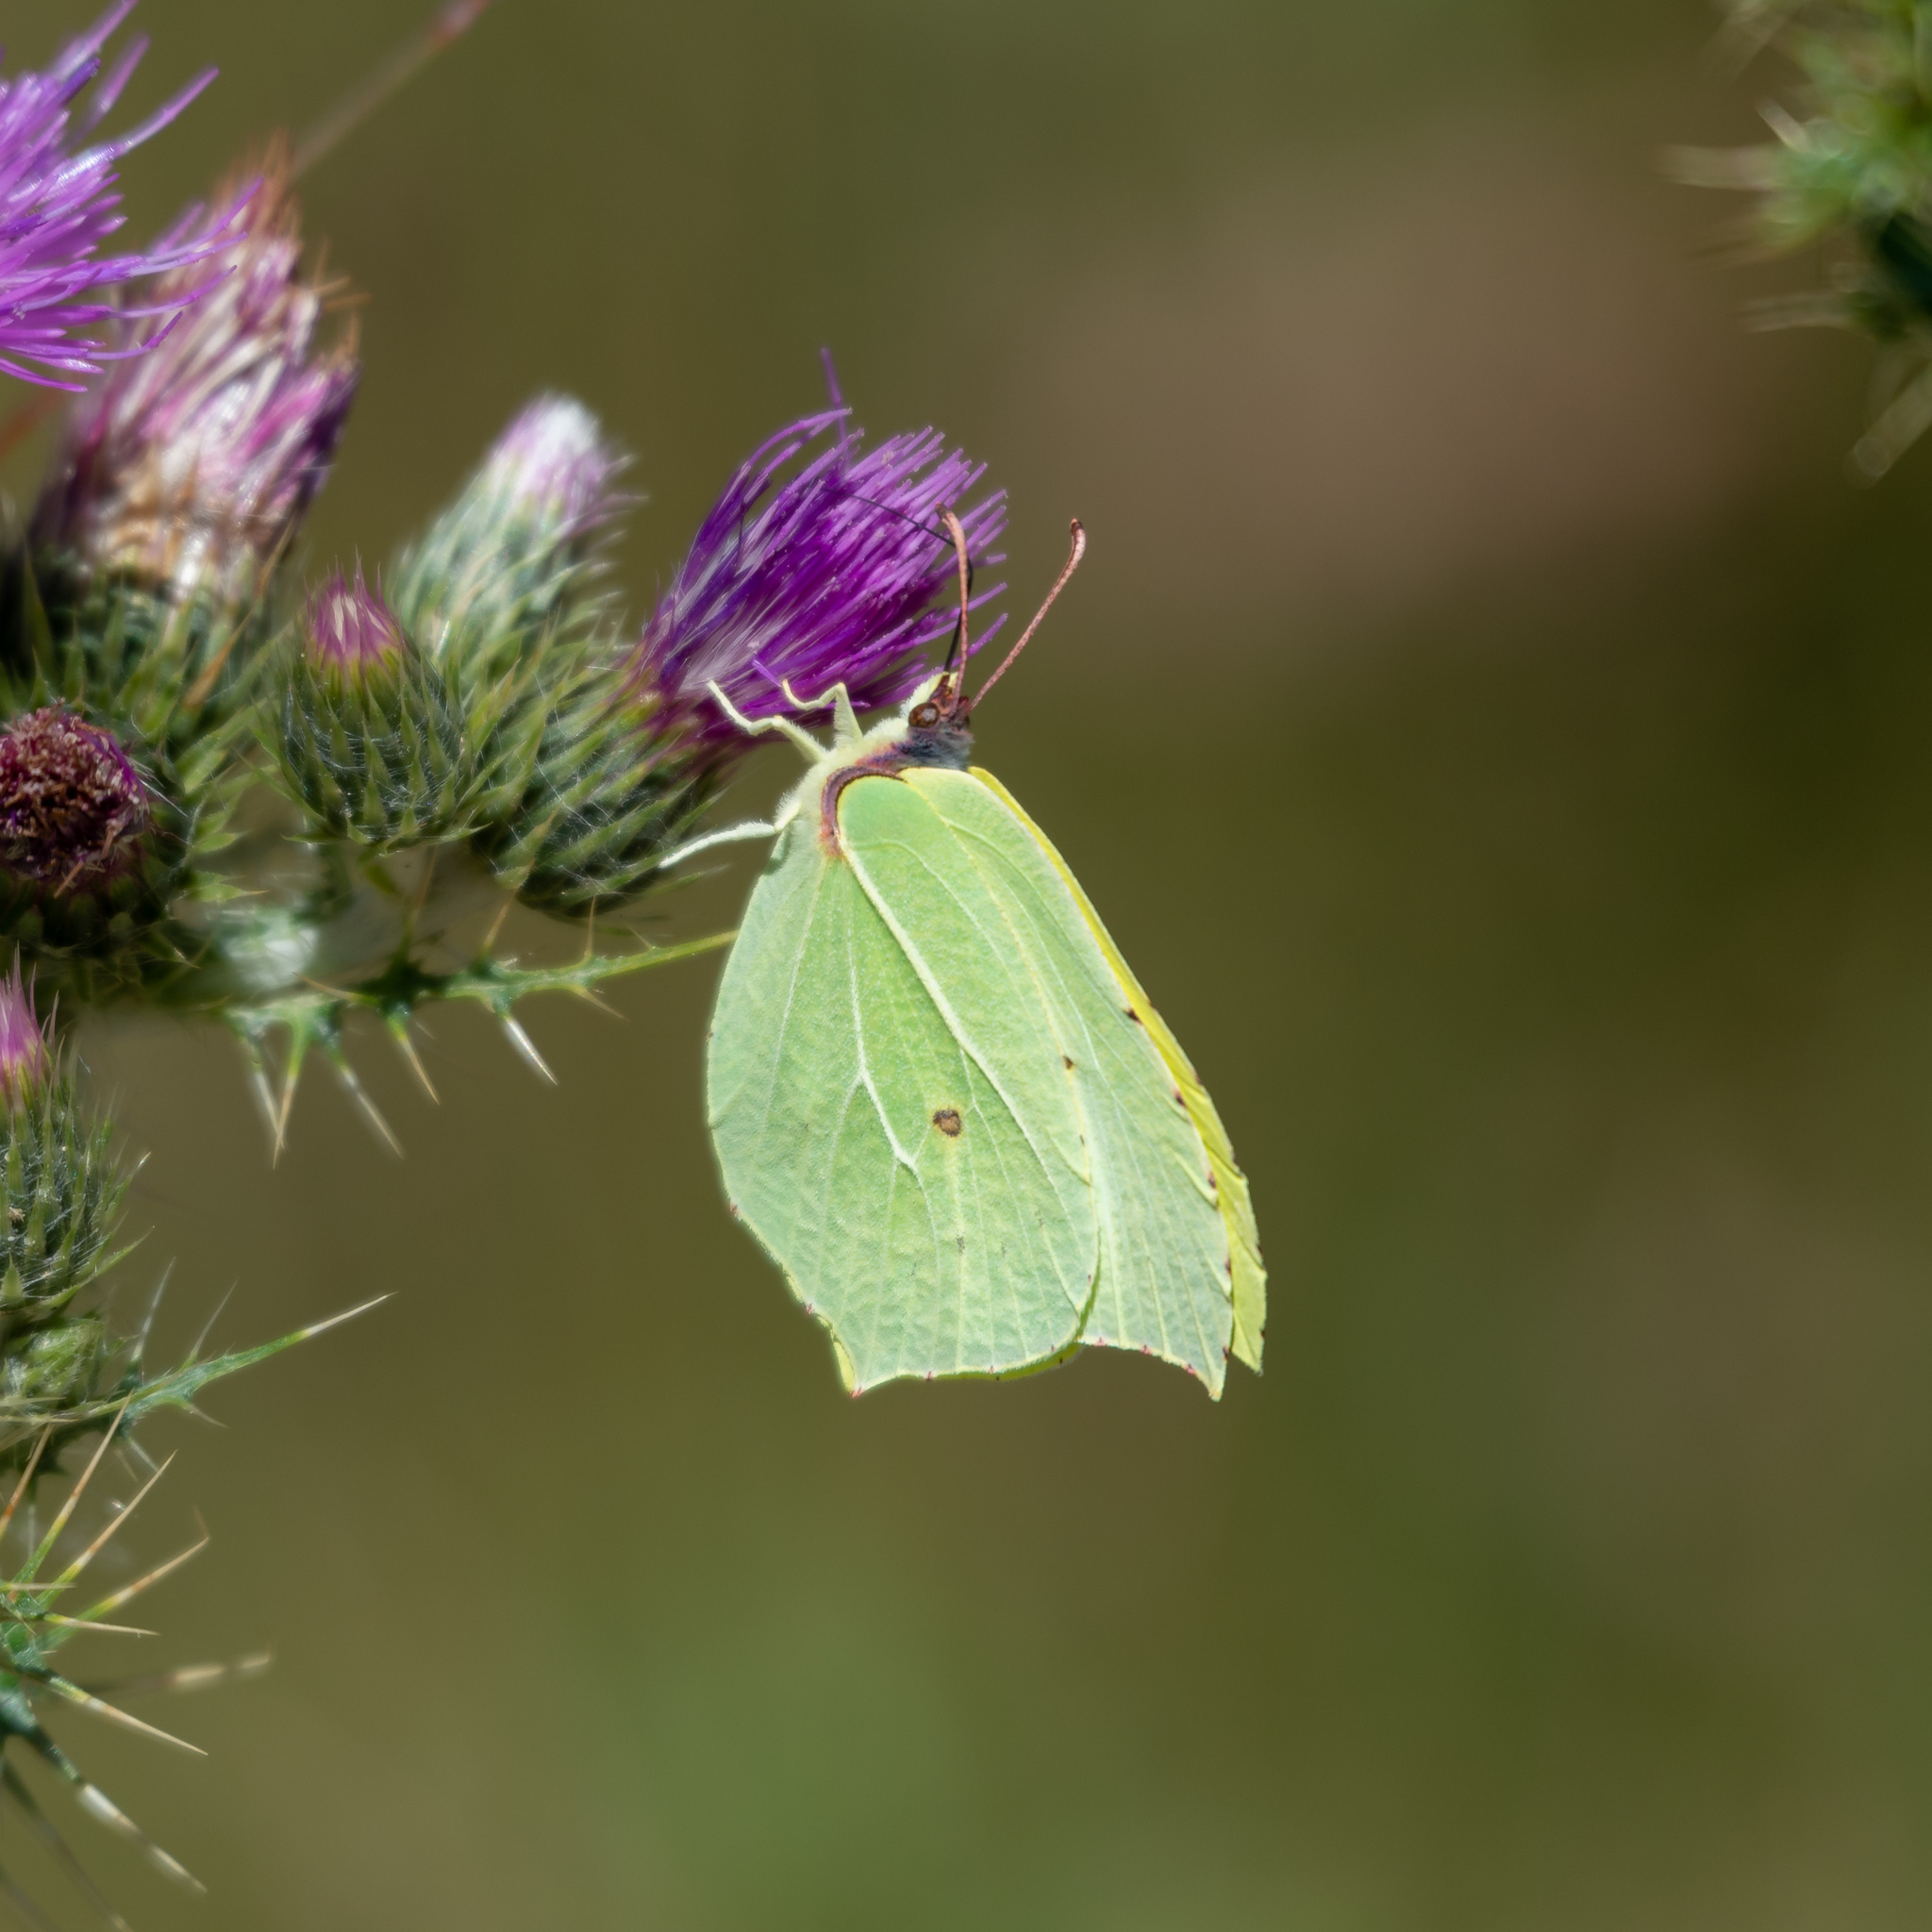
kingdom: Animalia
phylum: Arthropoda
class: Insecta
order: Lepidoptera
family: Pieridae
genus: Gonepteryx
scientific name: Gonepteryx rhamni
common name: Brimstone
